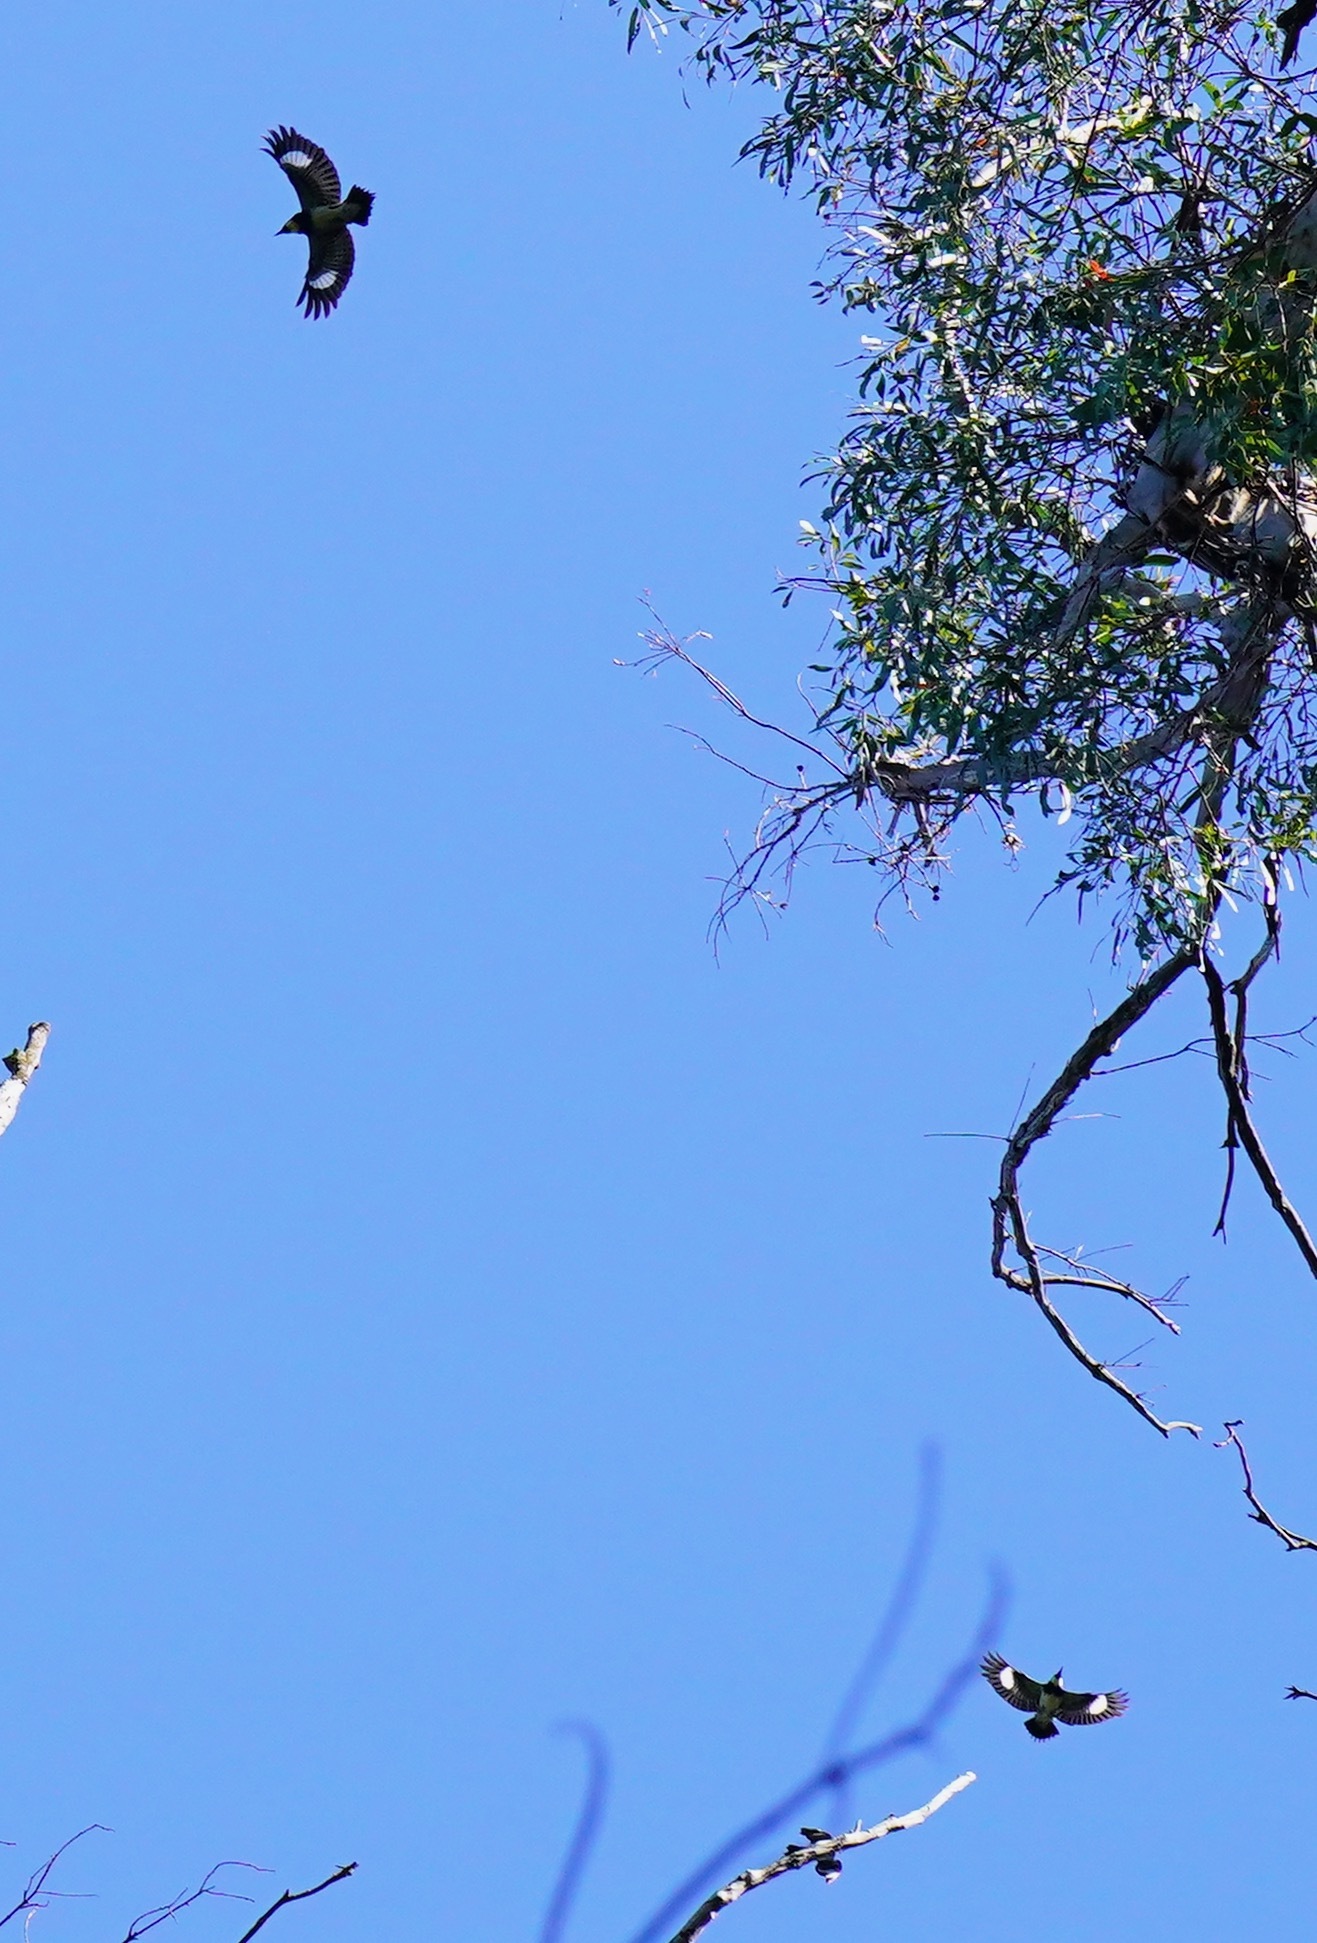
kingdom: Animalia
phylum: Chordata
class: Aves
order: Piciformes
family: Picidae
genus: Melanerpes
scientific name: Melanerpes formicivorus
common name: Acorn woodpecker
